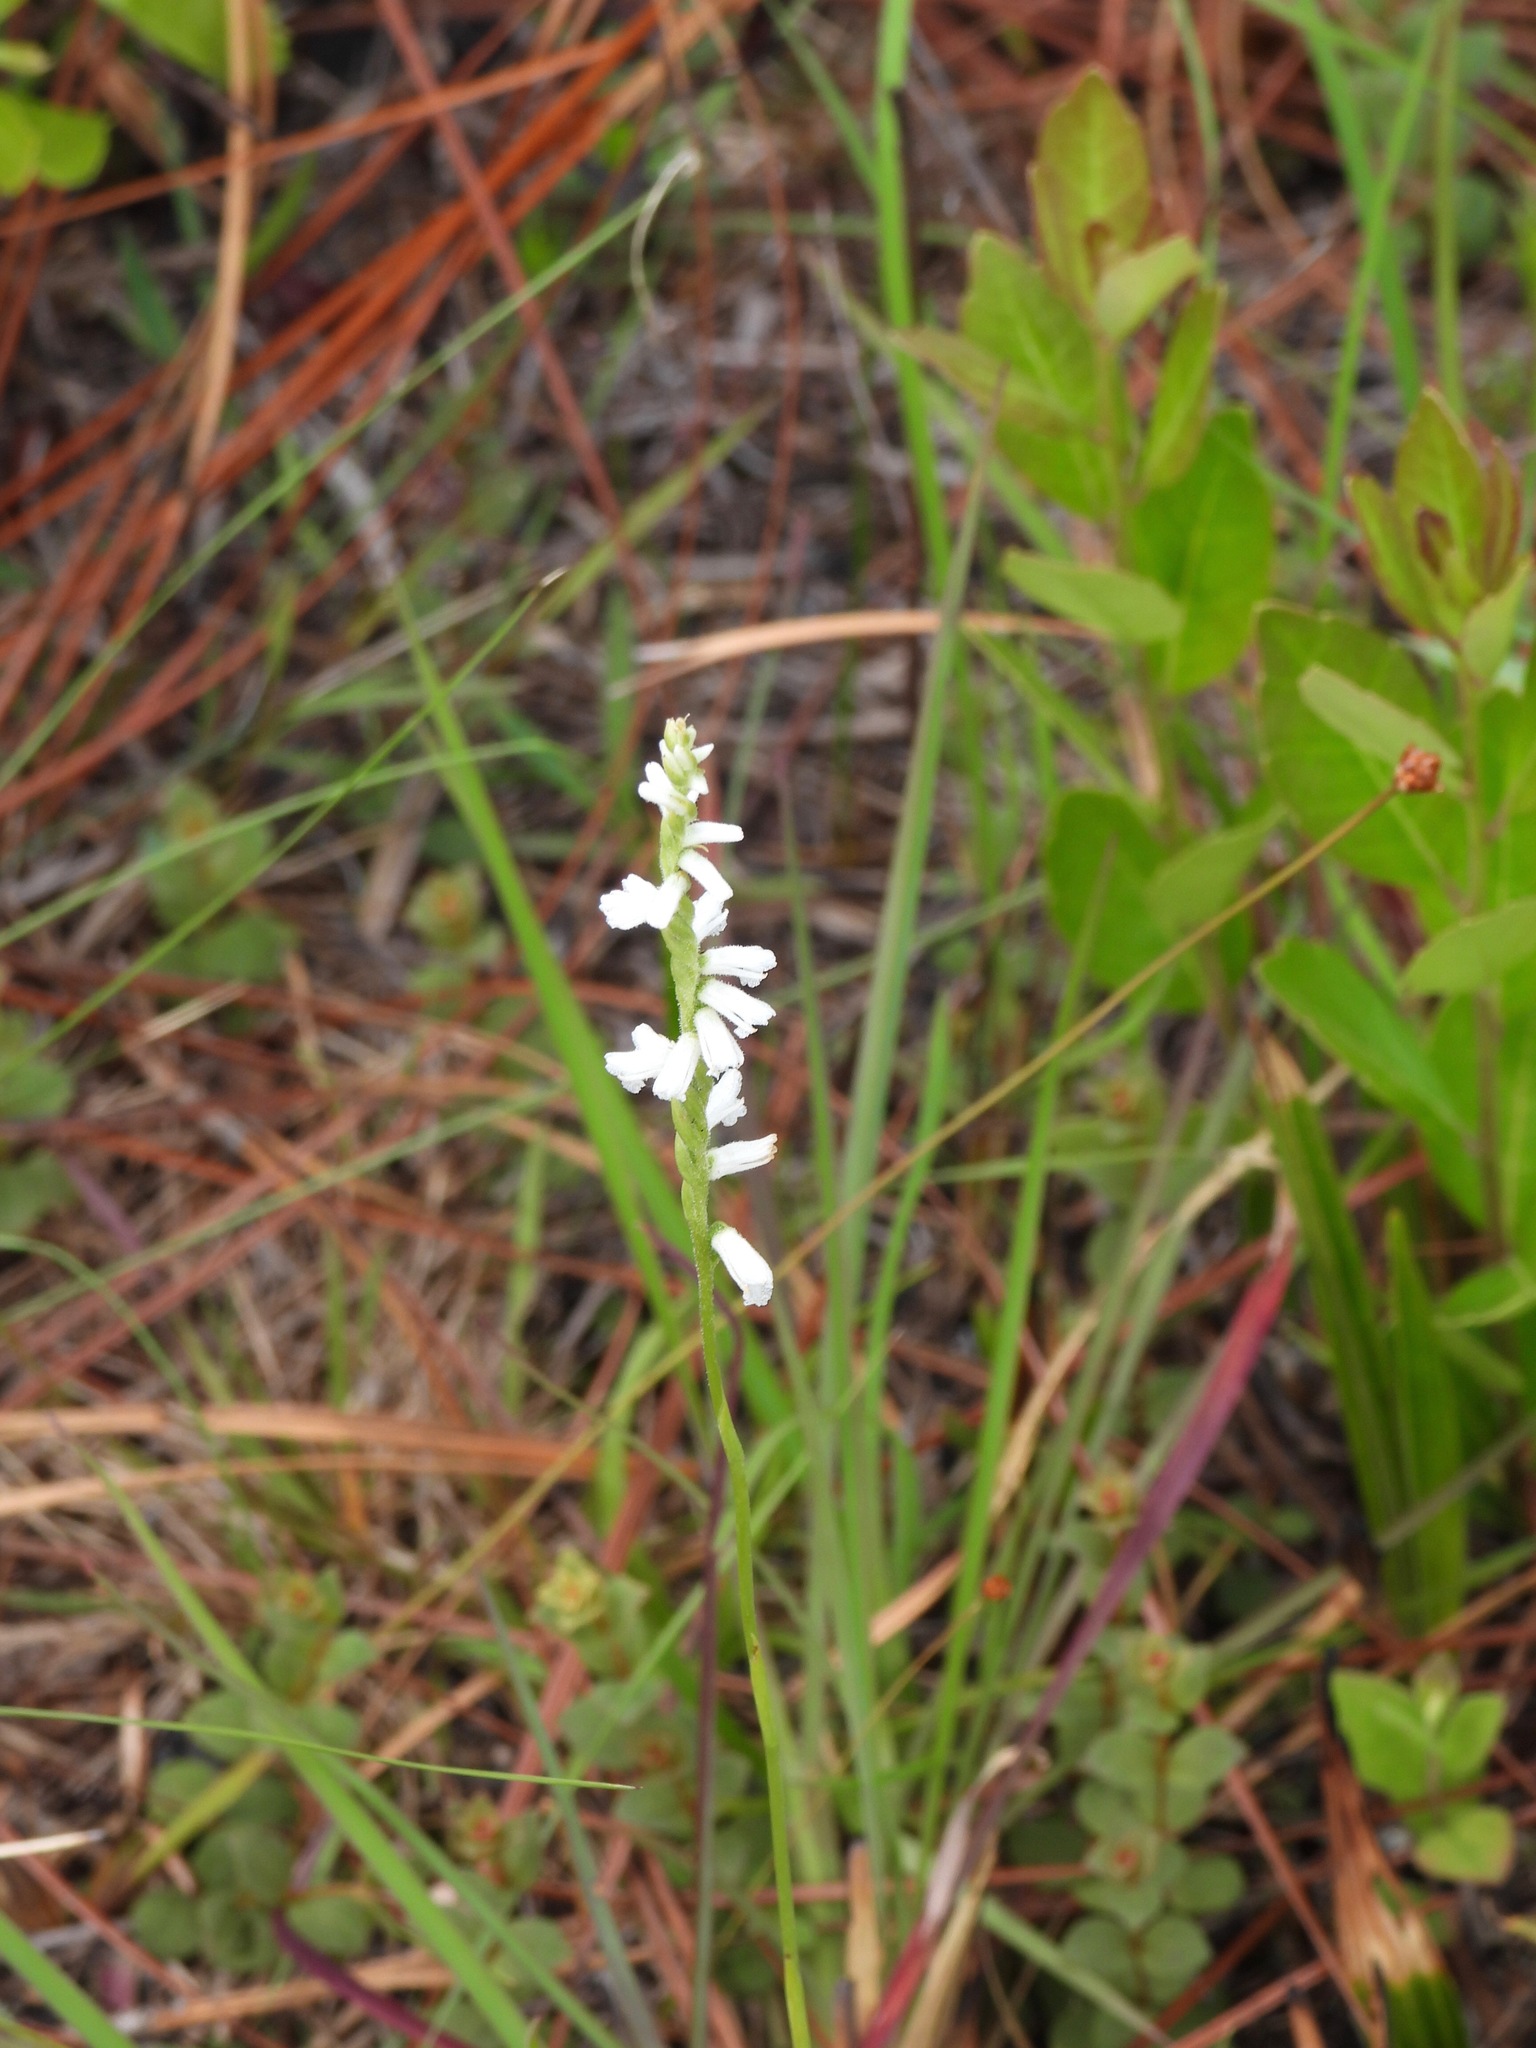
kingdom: Plantae
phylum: Tracheophyta
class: Liliopsida
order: Asparagales
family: Orchidaceae
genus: Spiranthes
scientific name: Spiranthes praecox
